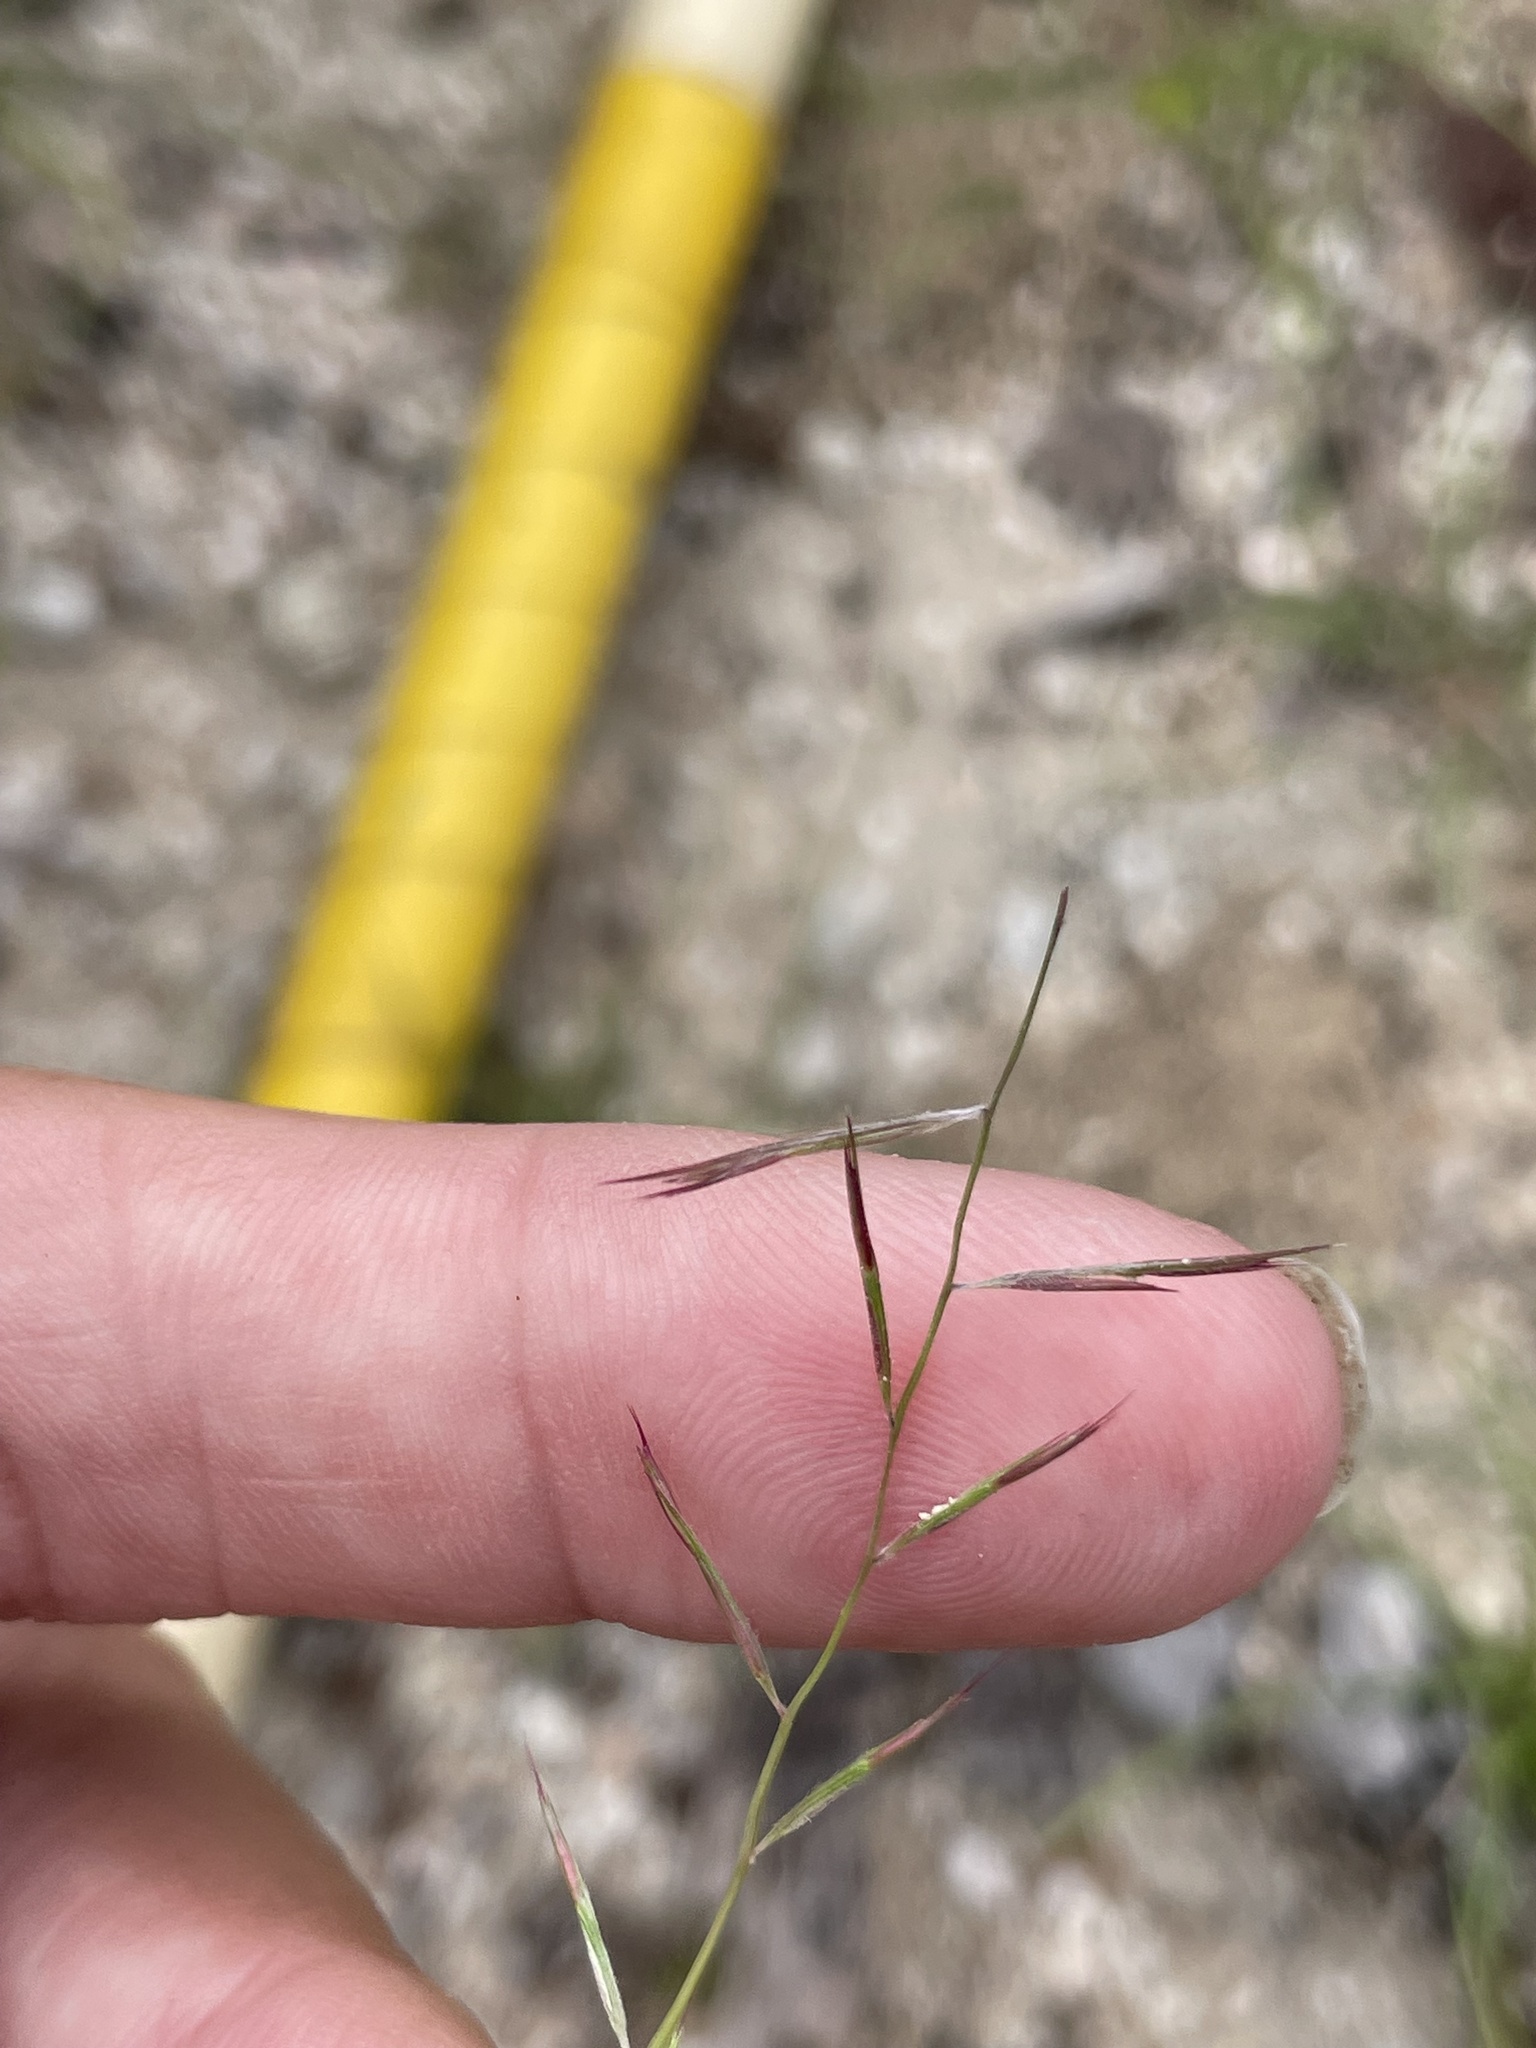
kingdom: Plantae
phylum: Tracheophyta
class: Liliopsida
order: Poales
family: Poaceae
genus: Bouteloua
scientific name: Bouteloua aristidoides
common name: Needle grama
